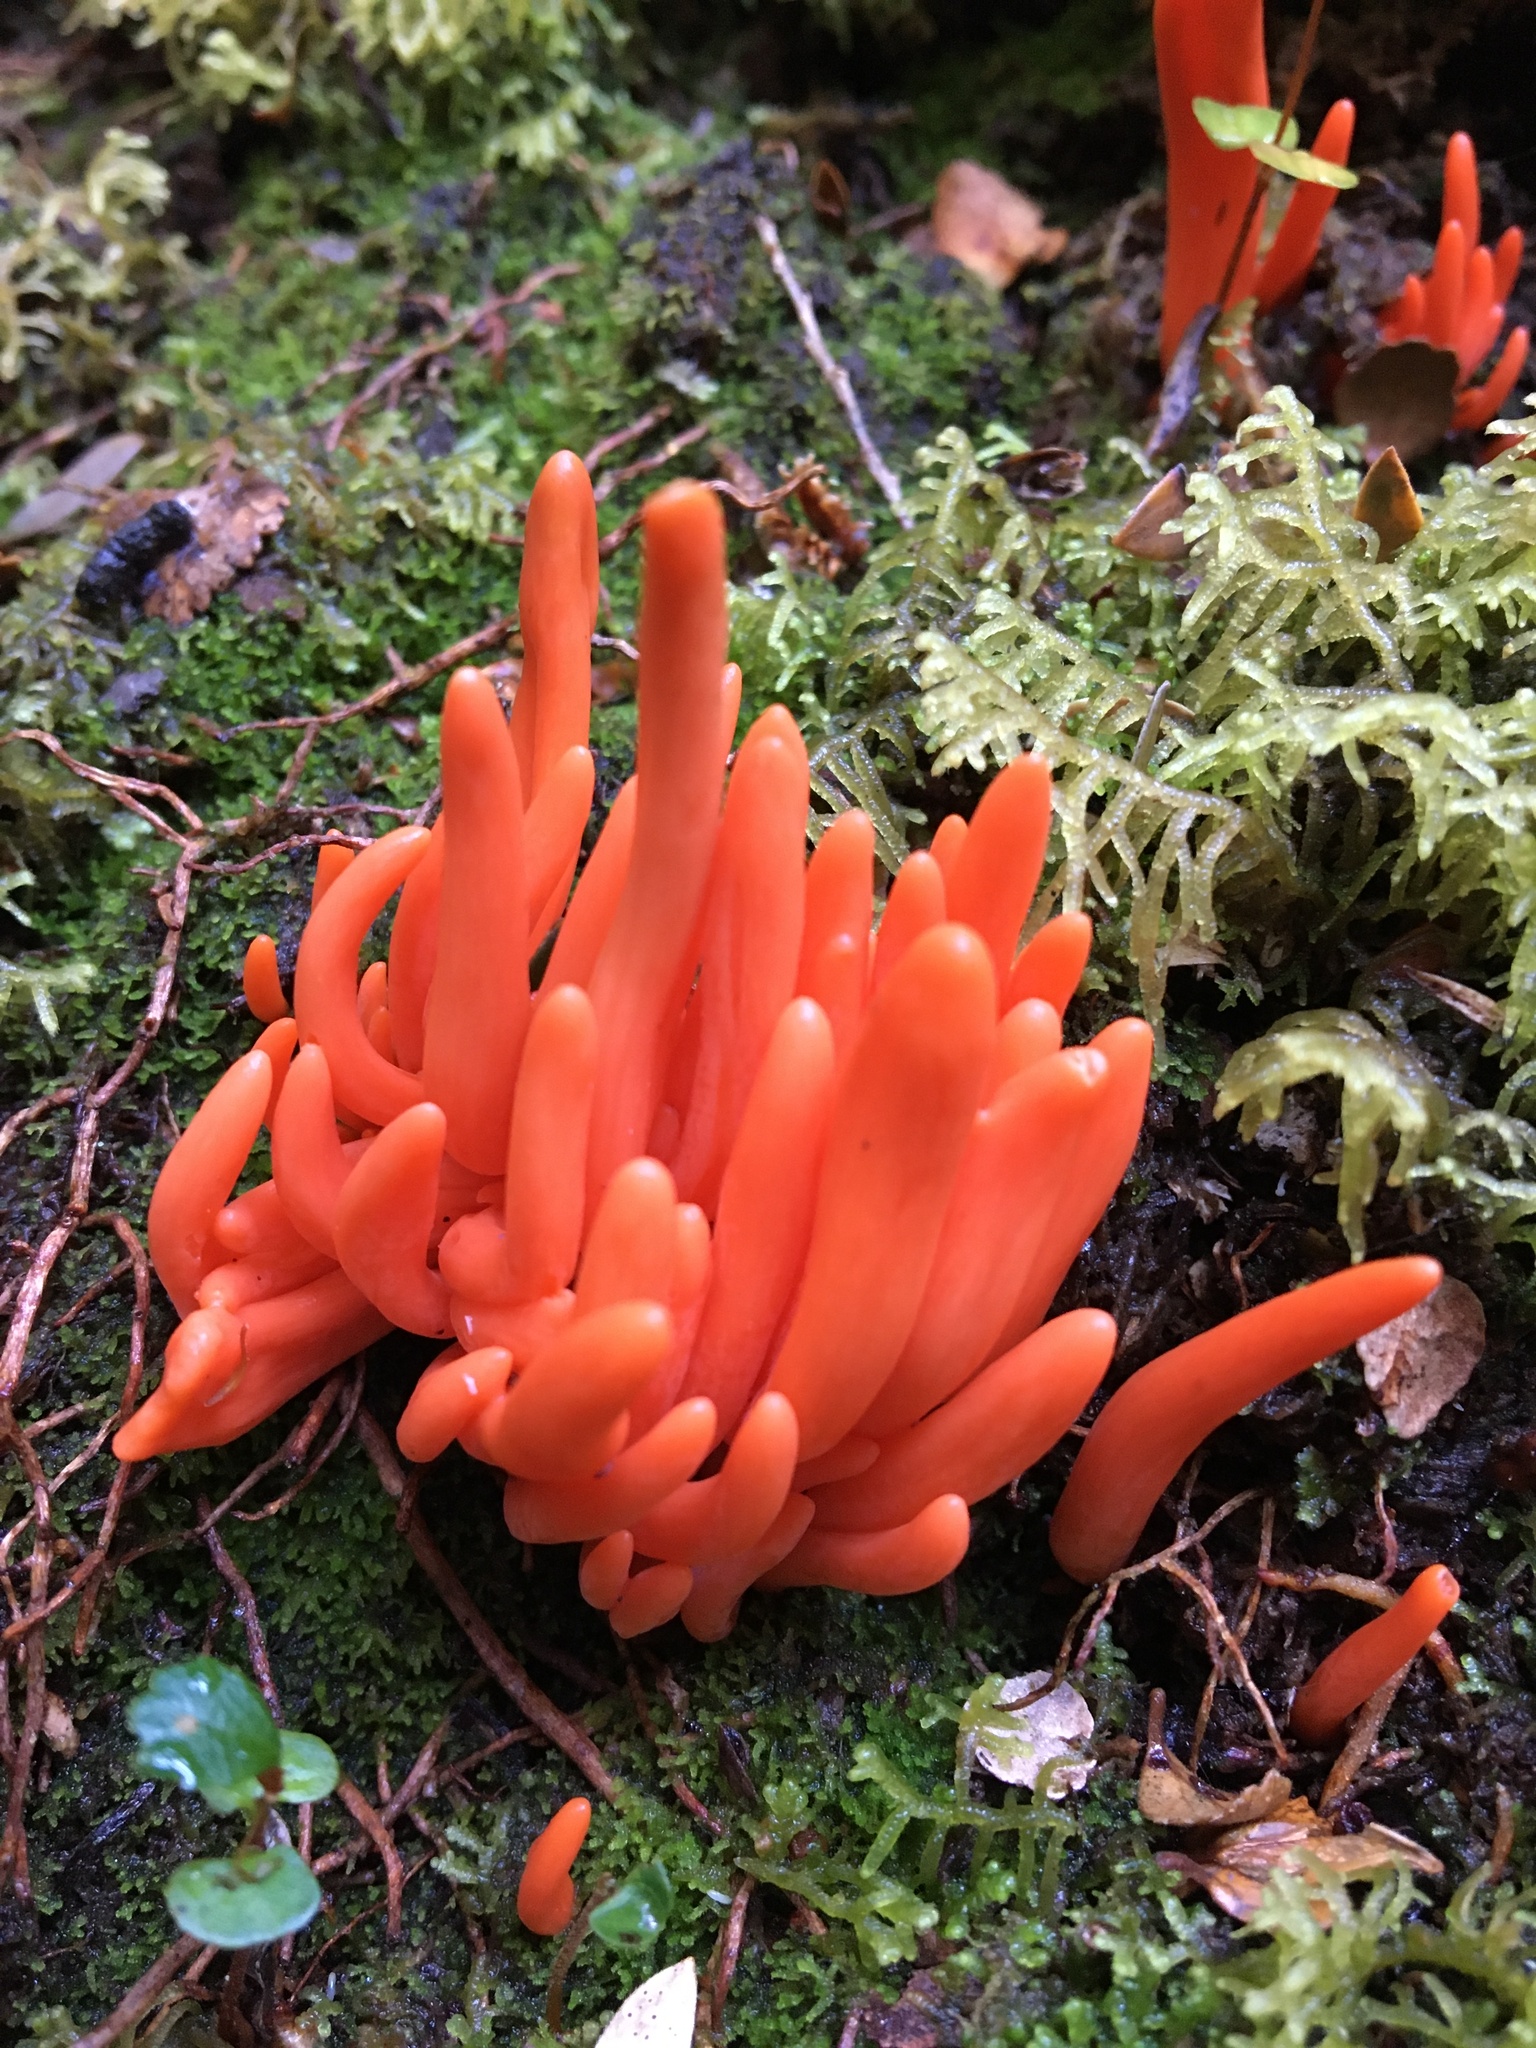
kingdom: Fungi
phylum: Basidiomycota
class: Agaricomycetes
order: Agaricales
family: Clavariaceae
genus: Clavulinopsis
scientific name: Clavulinopsis sulcata
